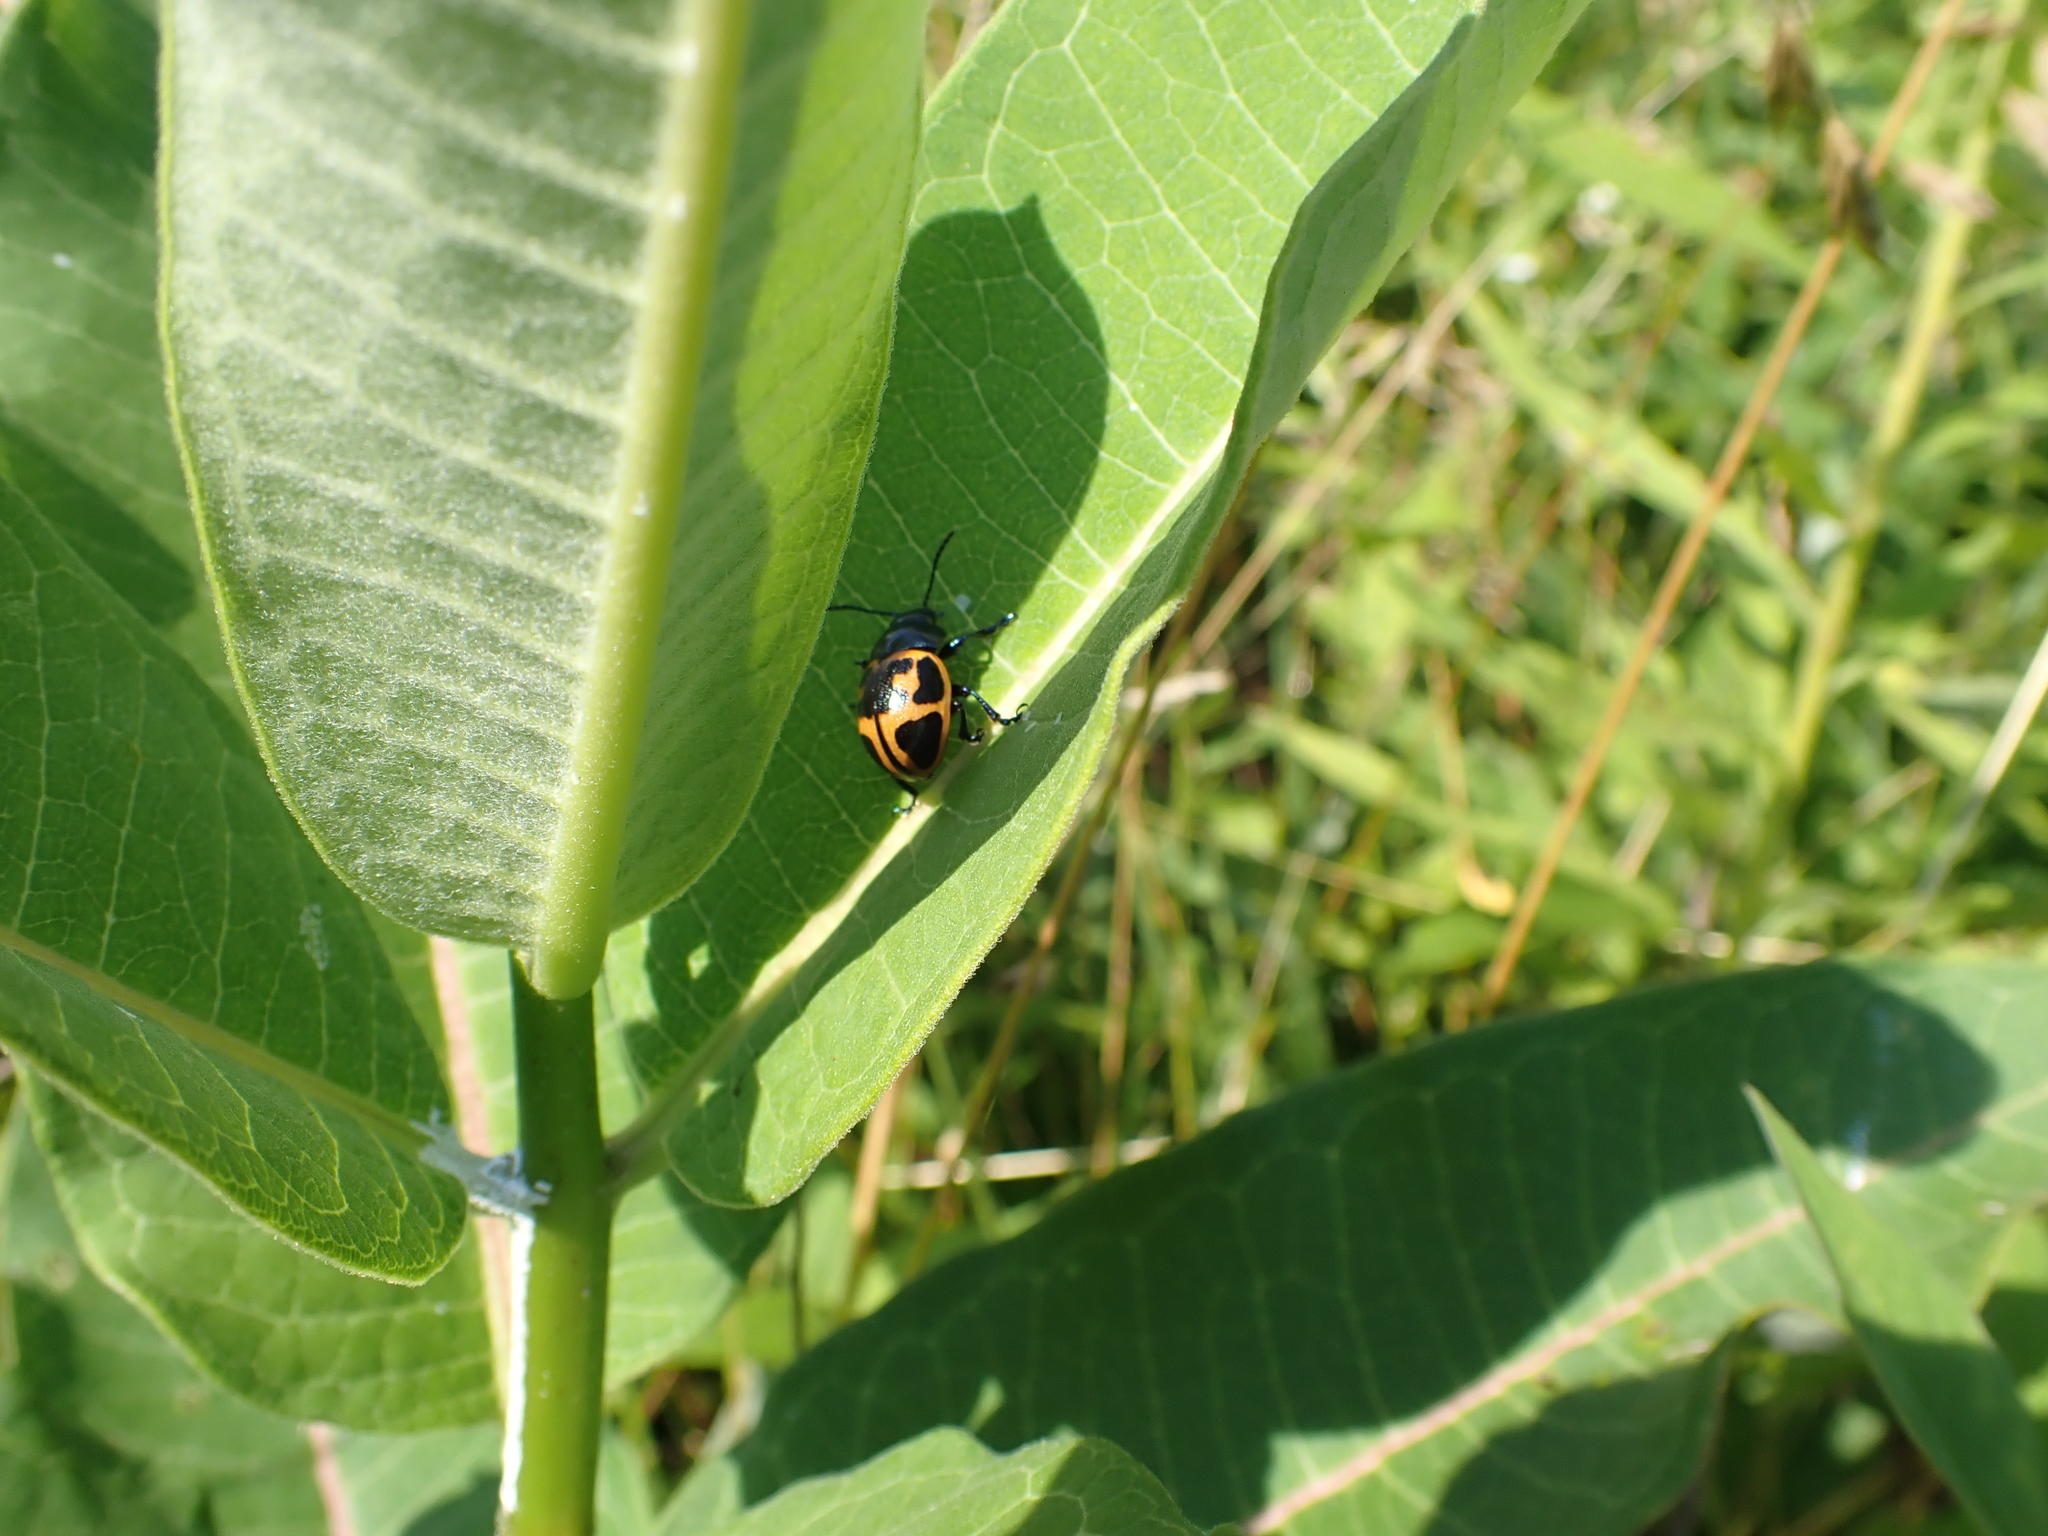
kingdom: Animalia
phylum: Arthropoda
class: Insecta
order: Coleoptera
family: Chrysomelidae
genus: Labidomera
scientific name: Labidomera clivicollis
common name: Swamp milkweed leaf beetle
